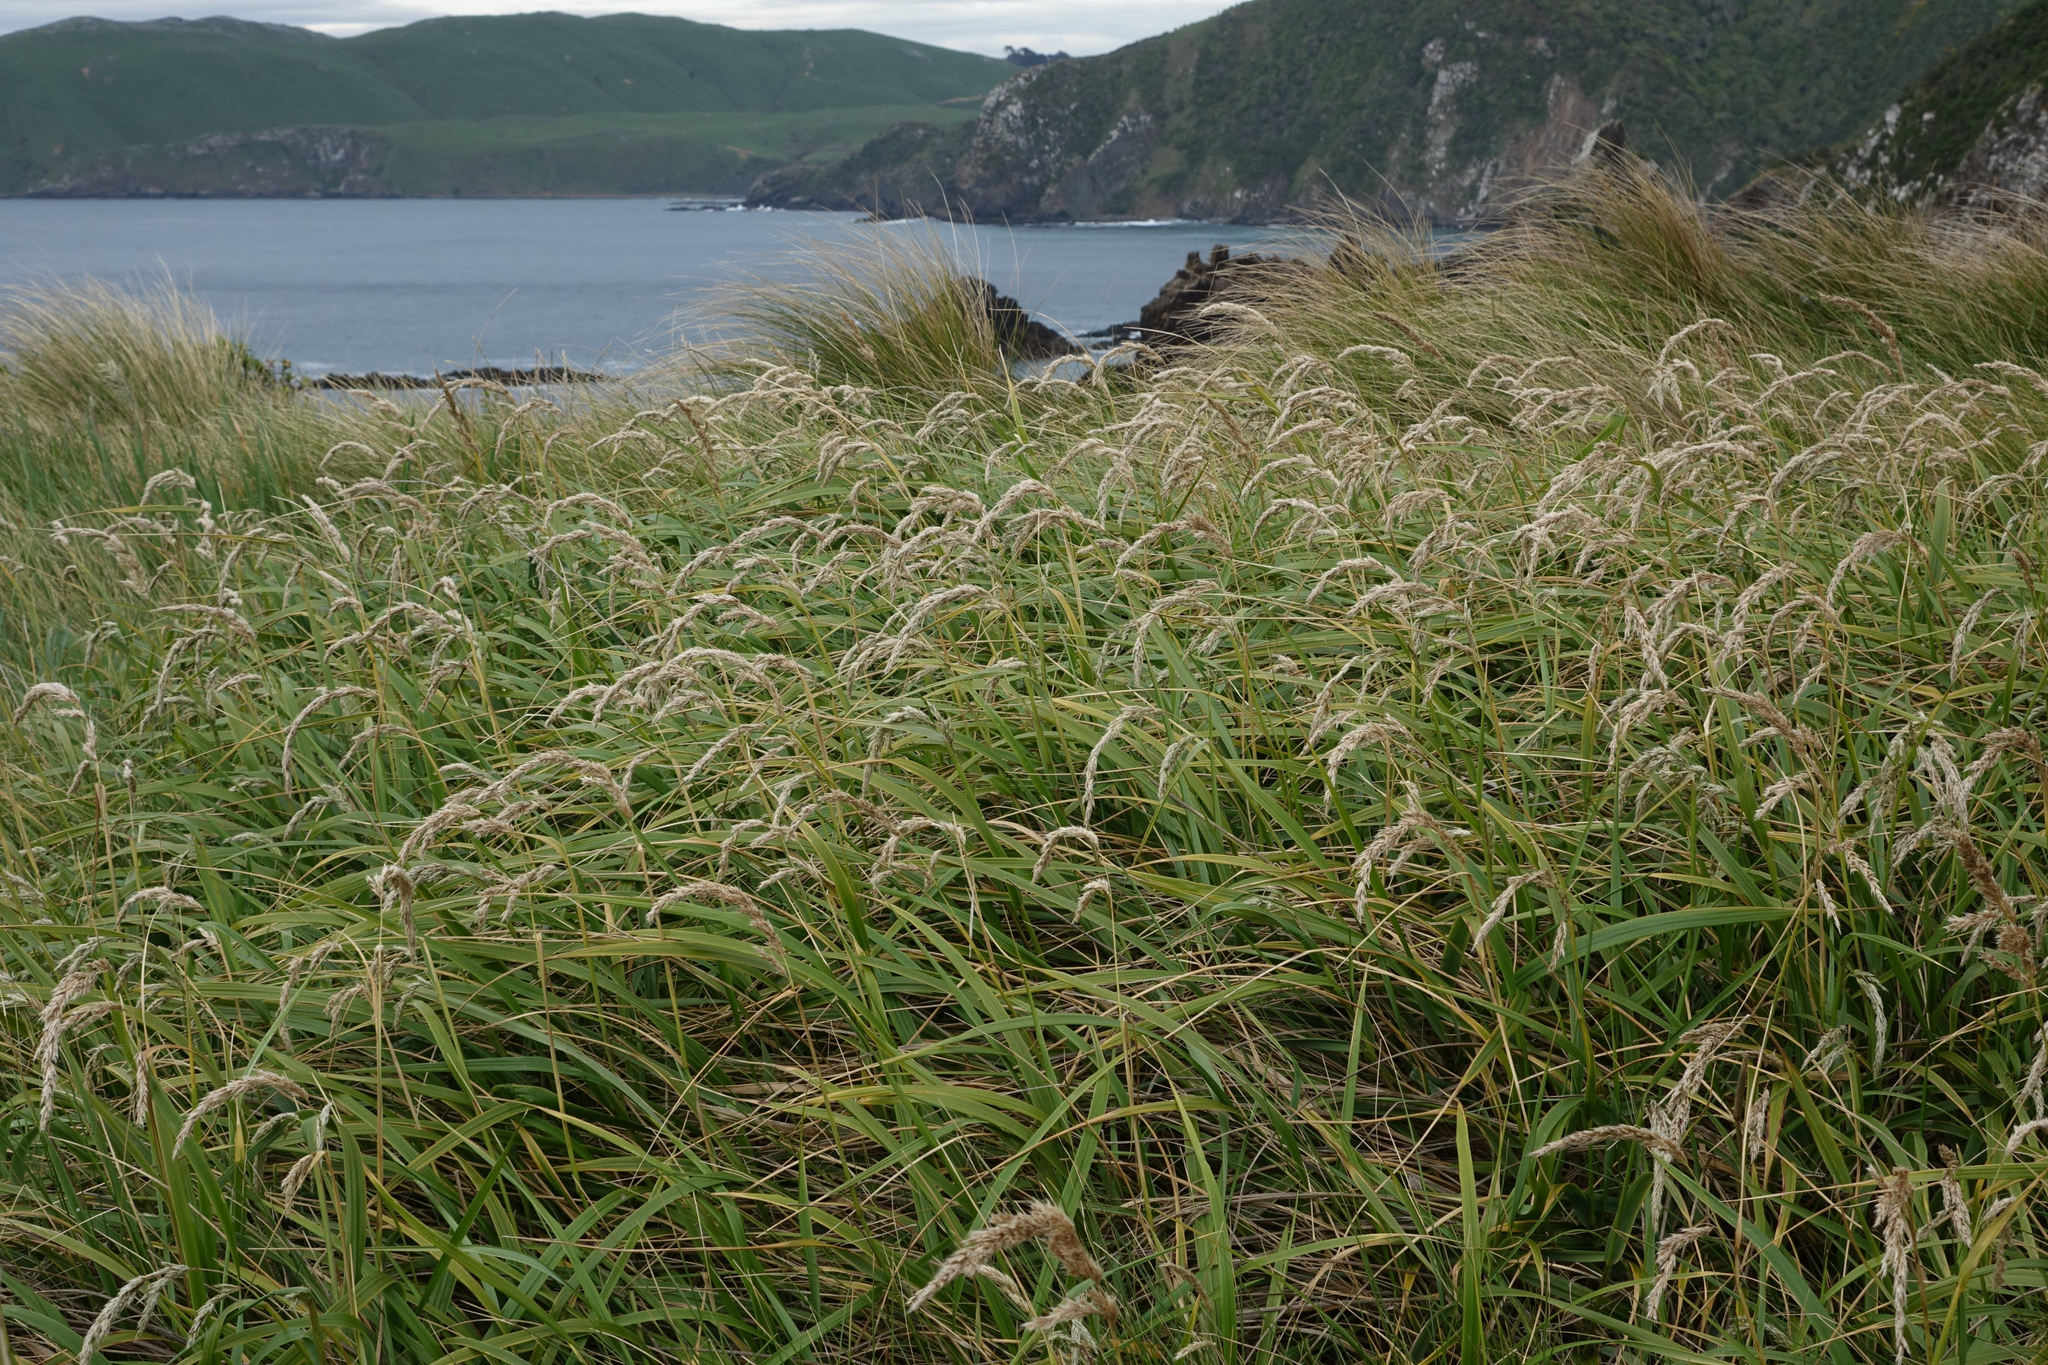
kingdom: Plantae
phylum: Tracheophyta
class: Liliopsida
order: Poales
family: Poaceae
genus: Anthoxanthum
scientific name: Anthoxanthum fuscum
